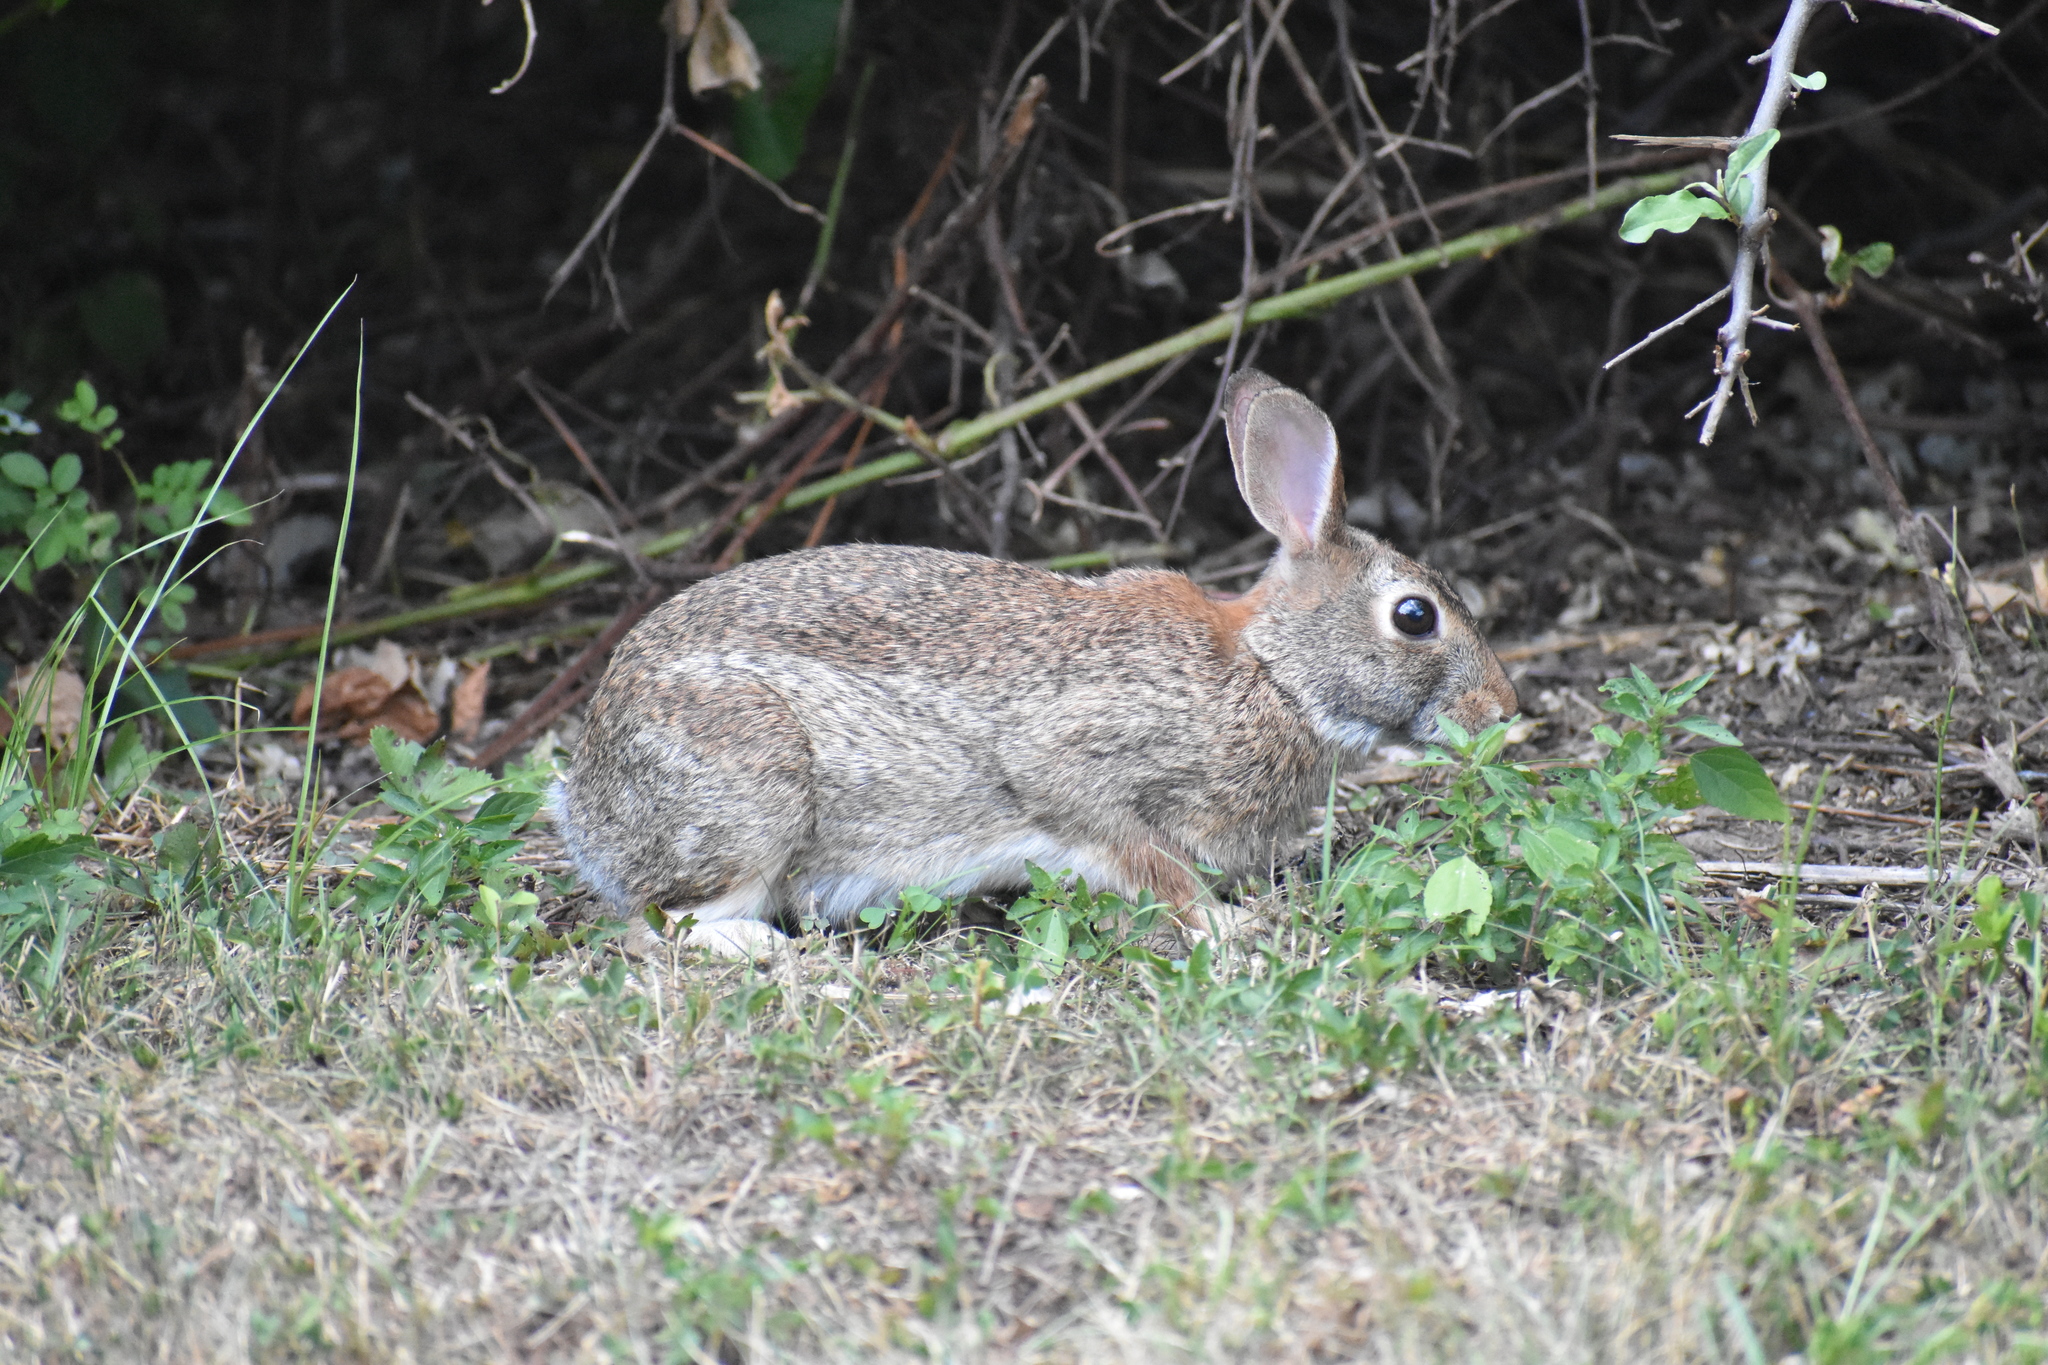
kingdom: Animalia
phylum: Chordata
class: Mammalia
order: Lagomorpha
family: Leporidae
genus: Sylvilagus
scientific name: Sylvilagus floridanus
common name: Eastern cottontail
